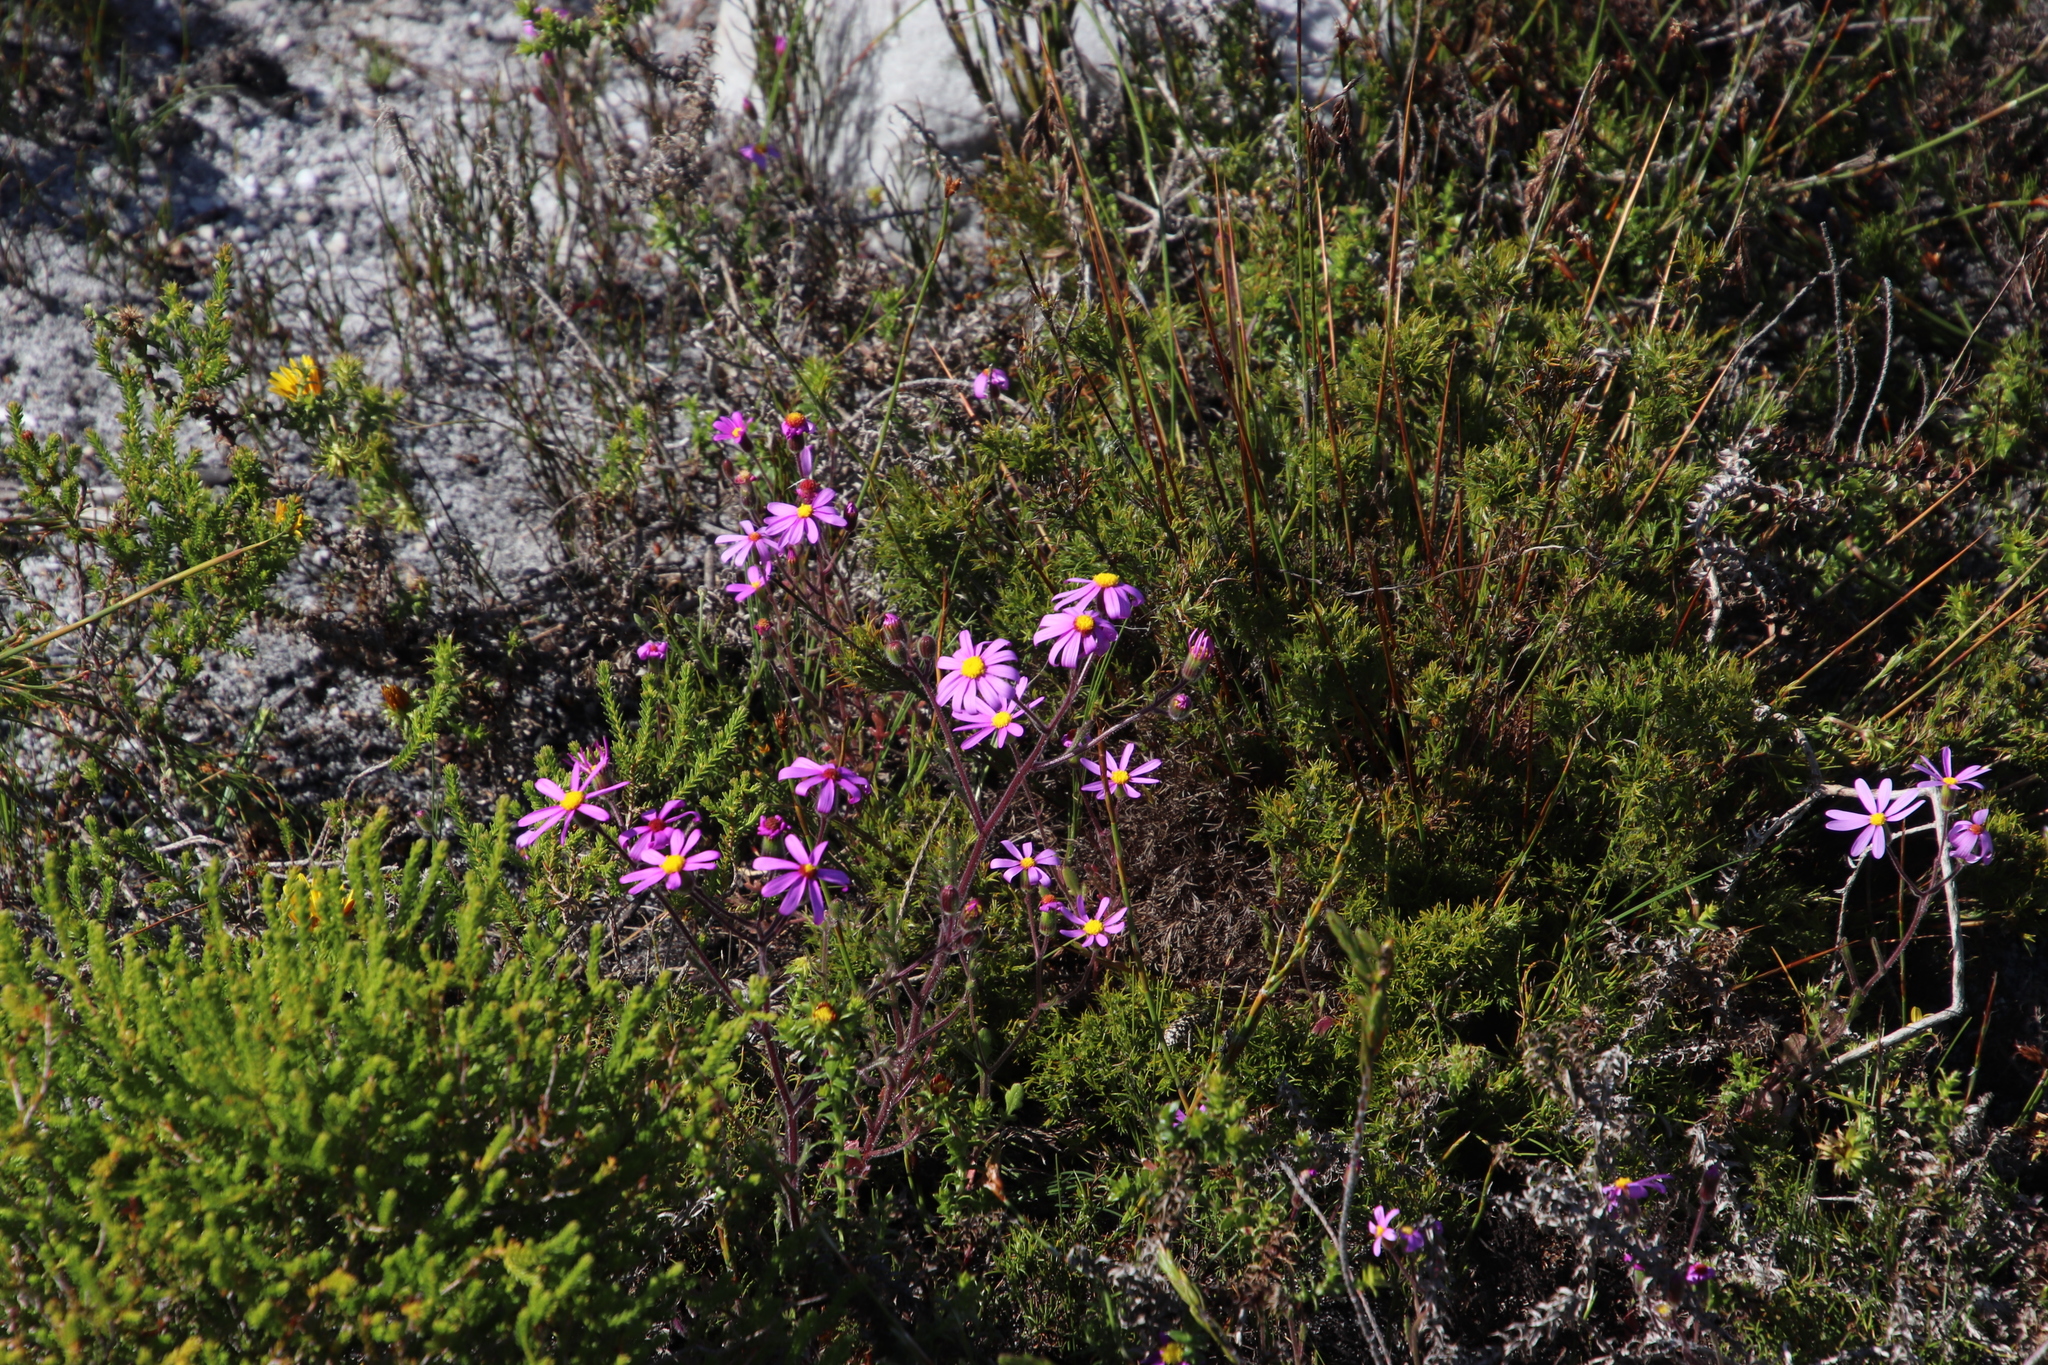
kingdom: Plantae
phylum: Tracheophyta
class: Magnoliopsida
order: Asterales
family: Asteraceae
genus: Senecio
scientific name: Senecio arenarius
